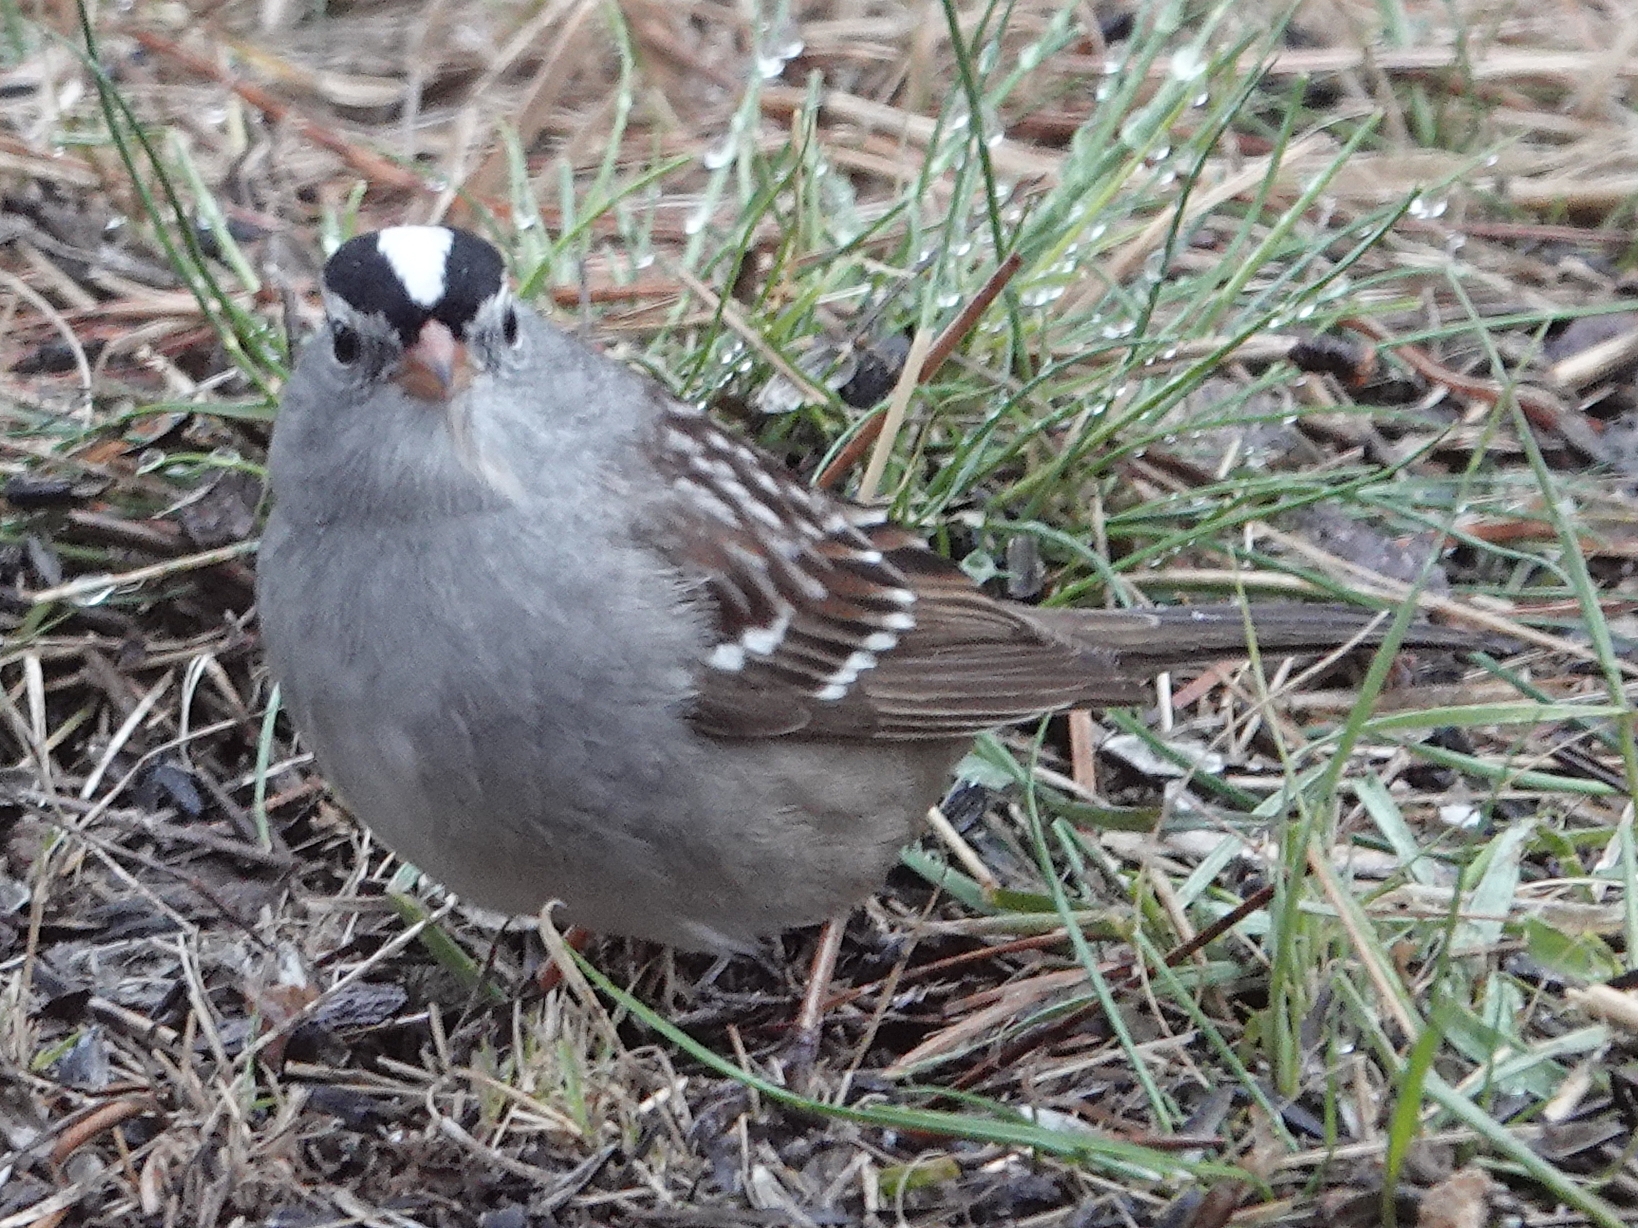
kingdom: Animalia
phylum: Chordata
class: Aves
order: Passeriformes
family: Passerellidae
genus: Zonotrichia
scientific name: Zonotrichia leucophrys
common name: White-crowned sparrow
